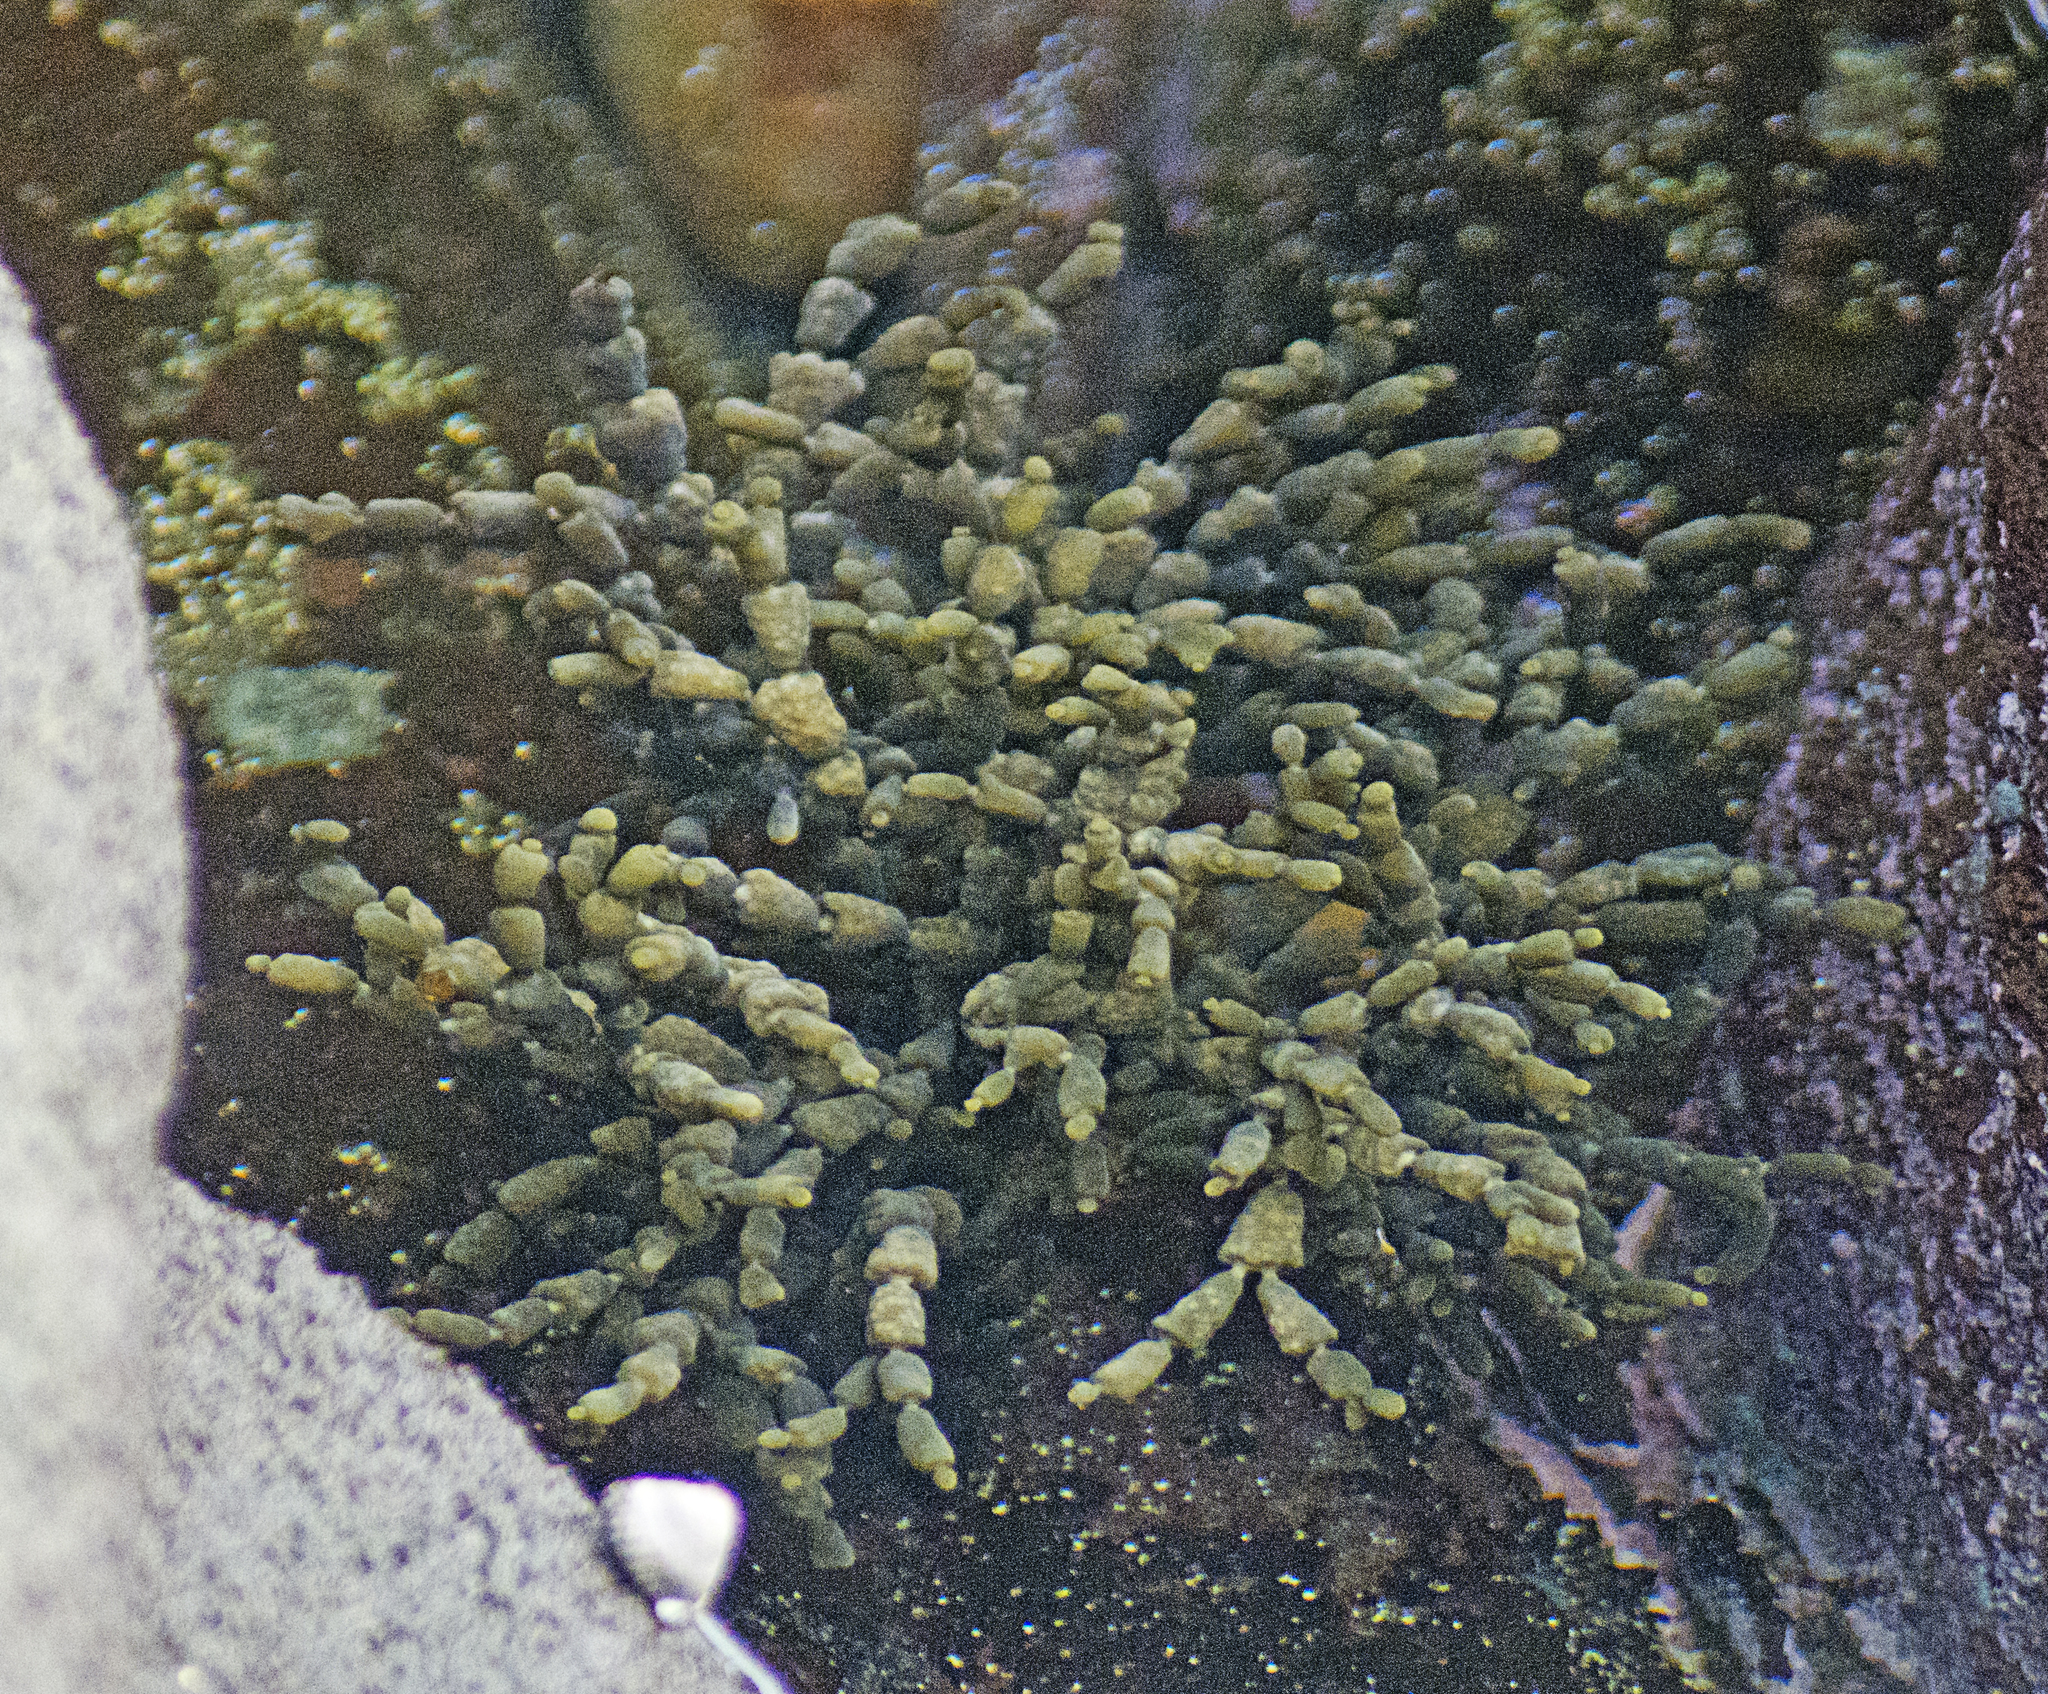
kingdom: Chromista
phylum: Ochrophyta
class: Phaeophyceae
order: Fucales
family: Hormosiraceae
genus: Hormosira
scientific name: Hormosira banksii
